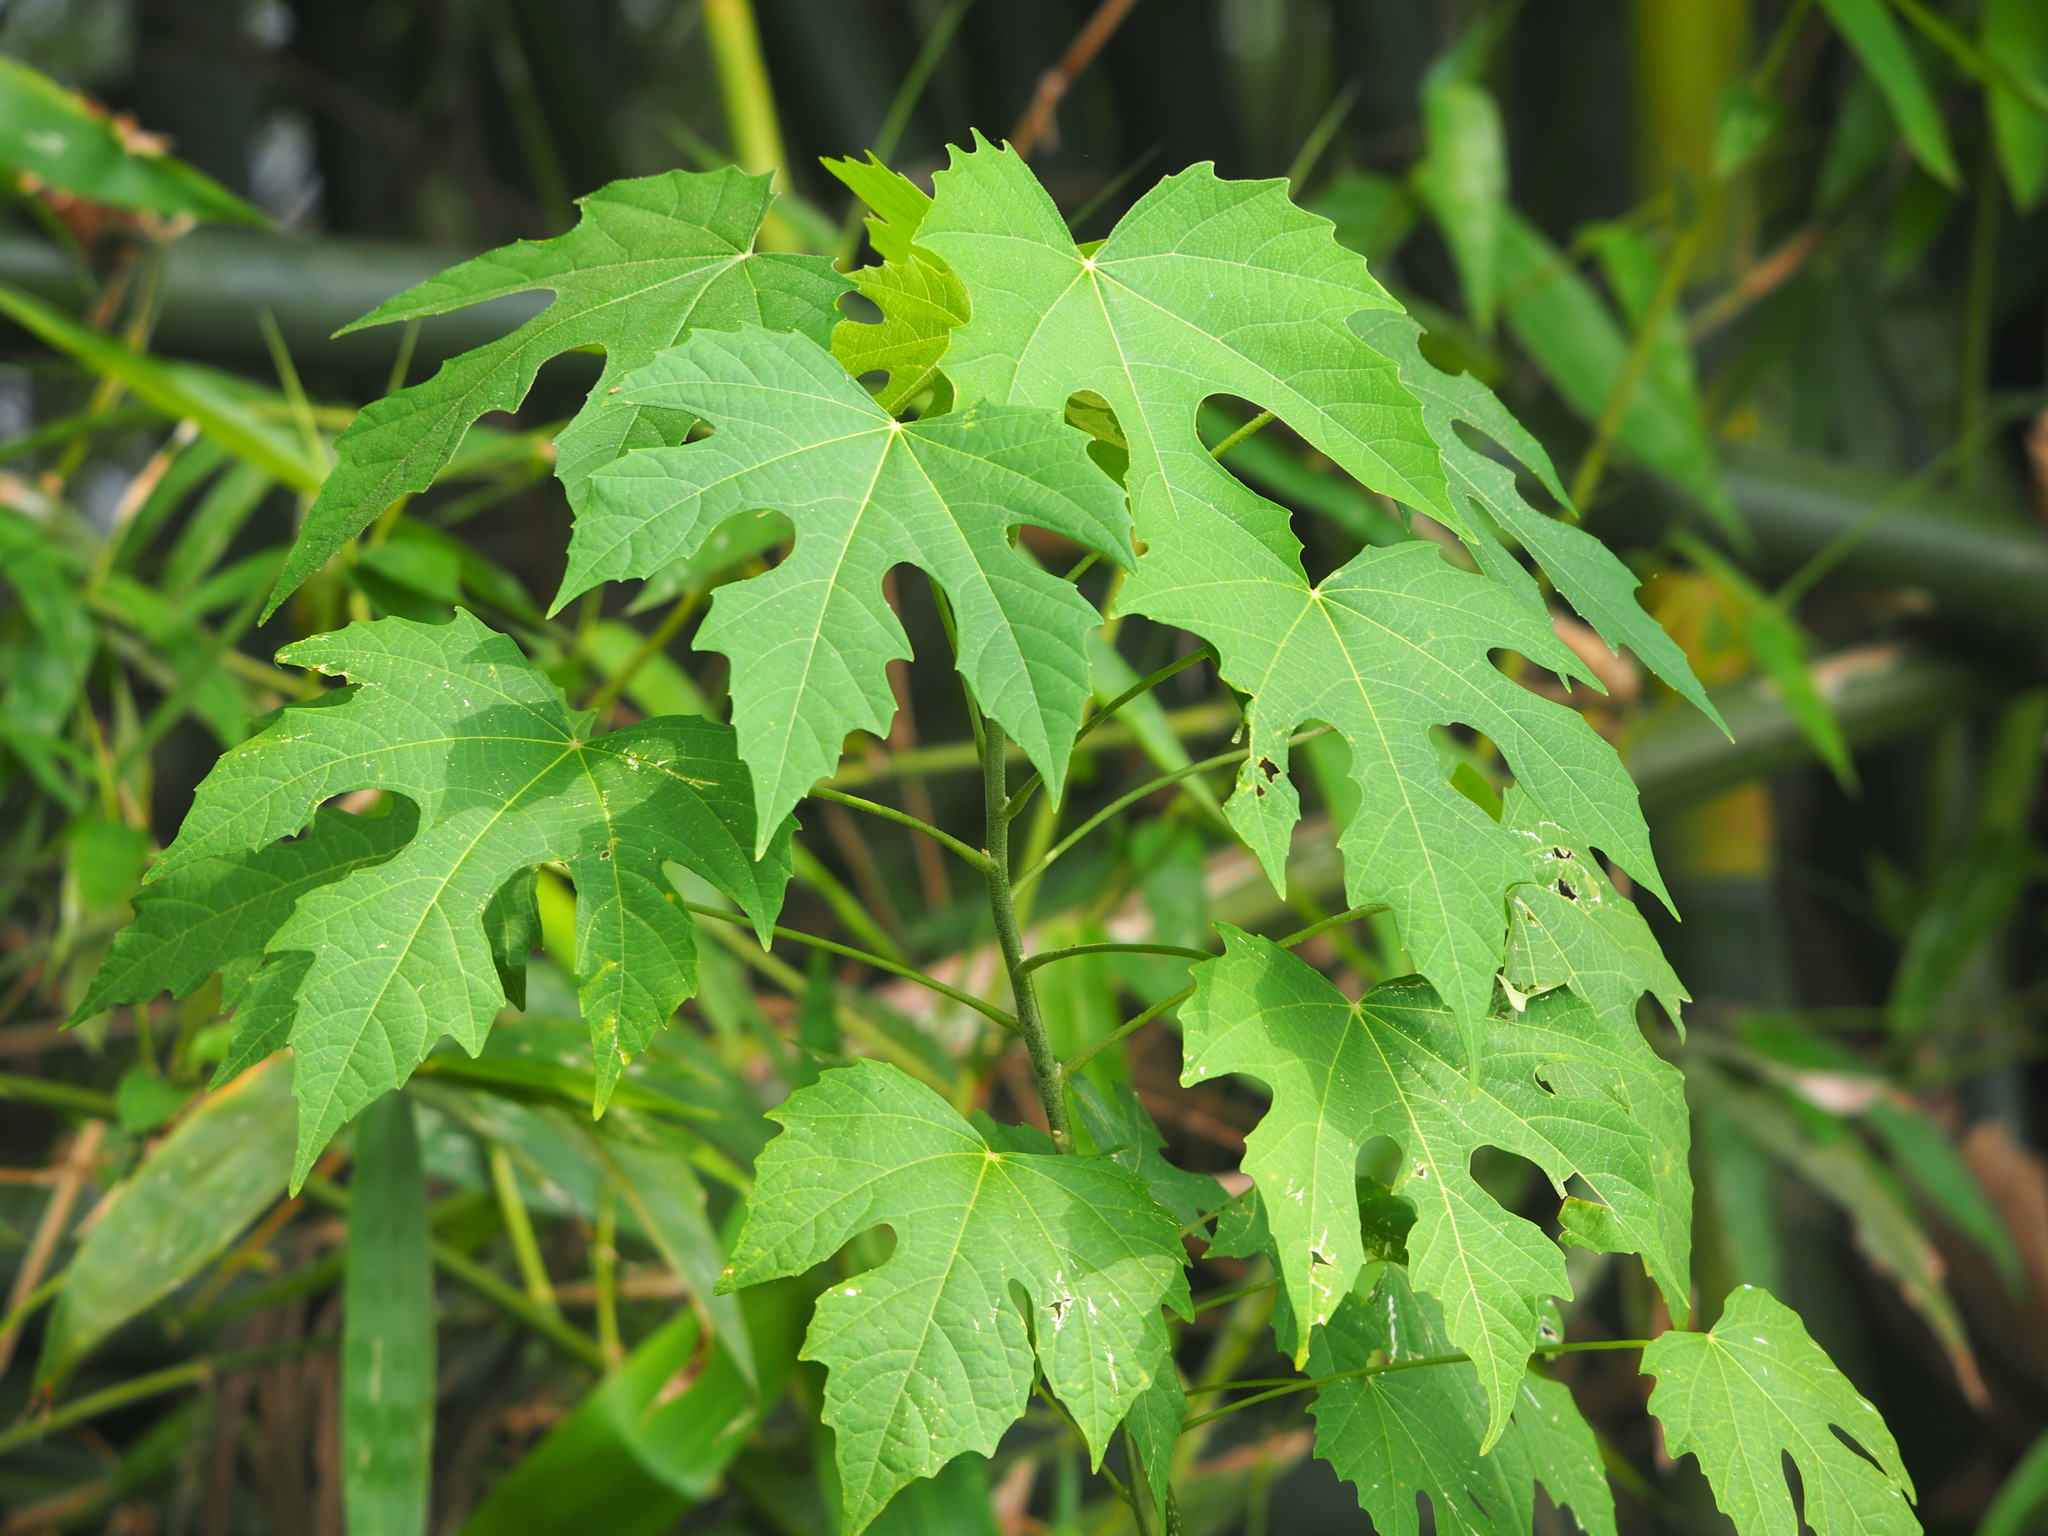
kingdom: Plantae
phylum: Tracheophyta
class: Magnoliopsida
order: Malpighiales
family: Euphorbiaceae
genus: Melanolepis
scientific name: Melanolepis multiglandulosa
